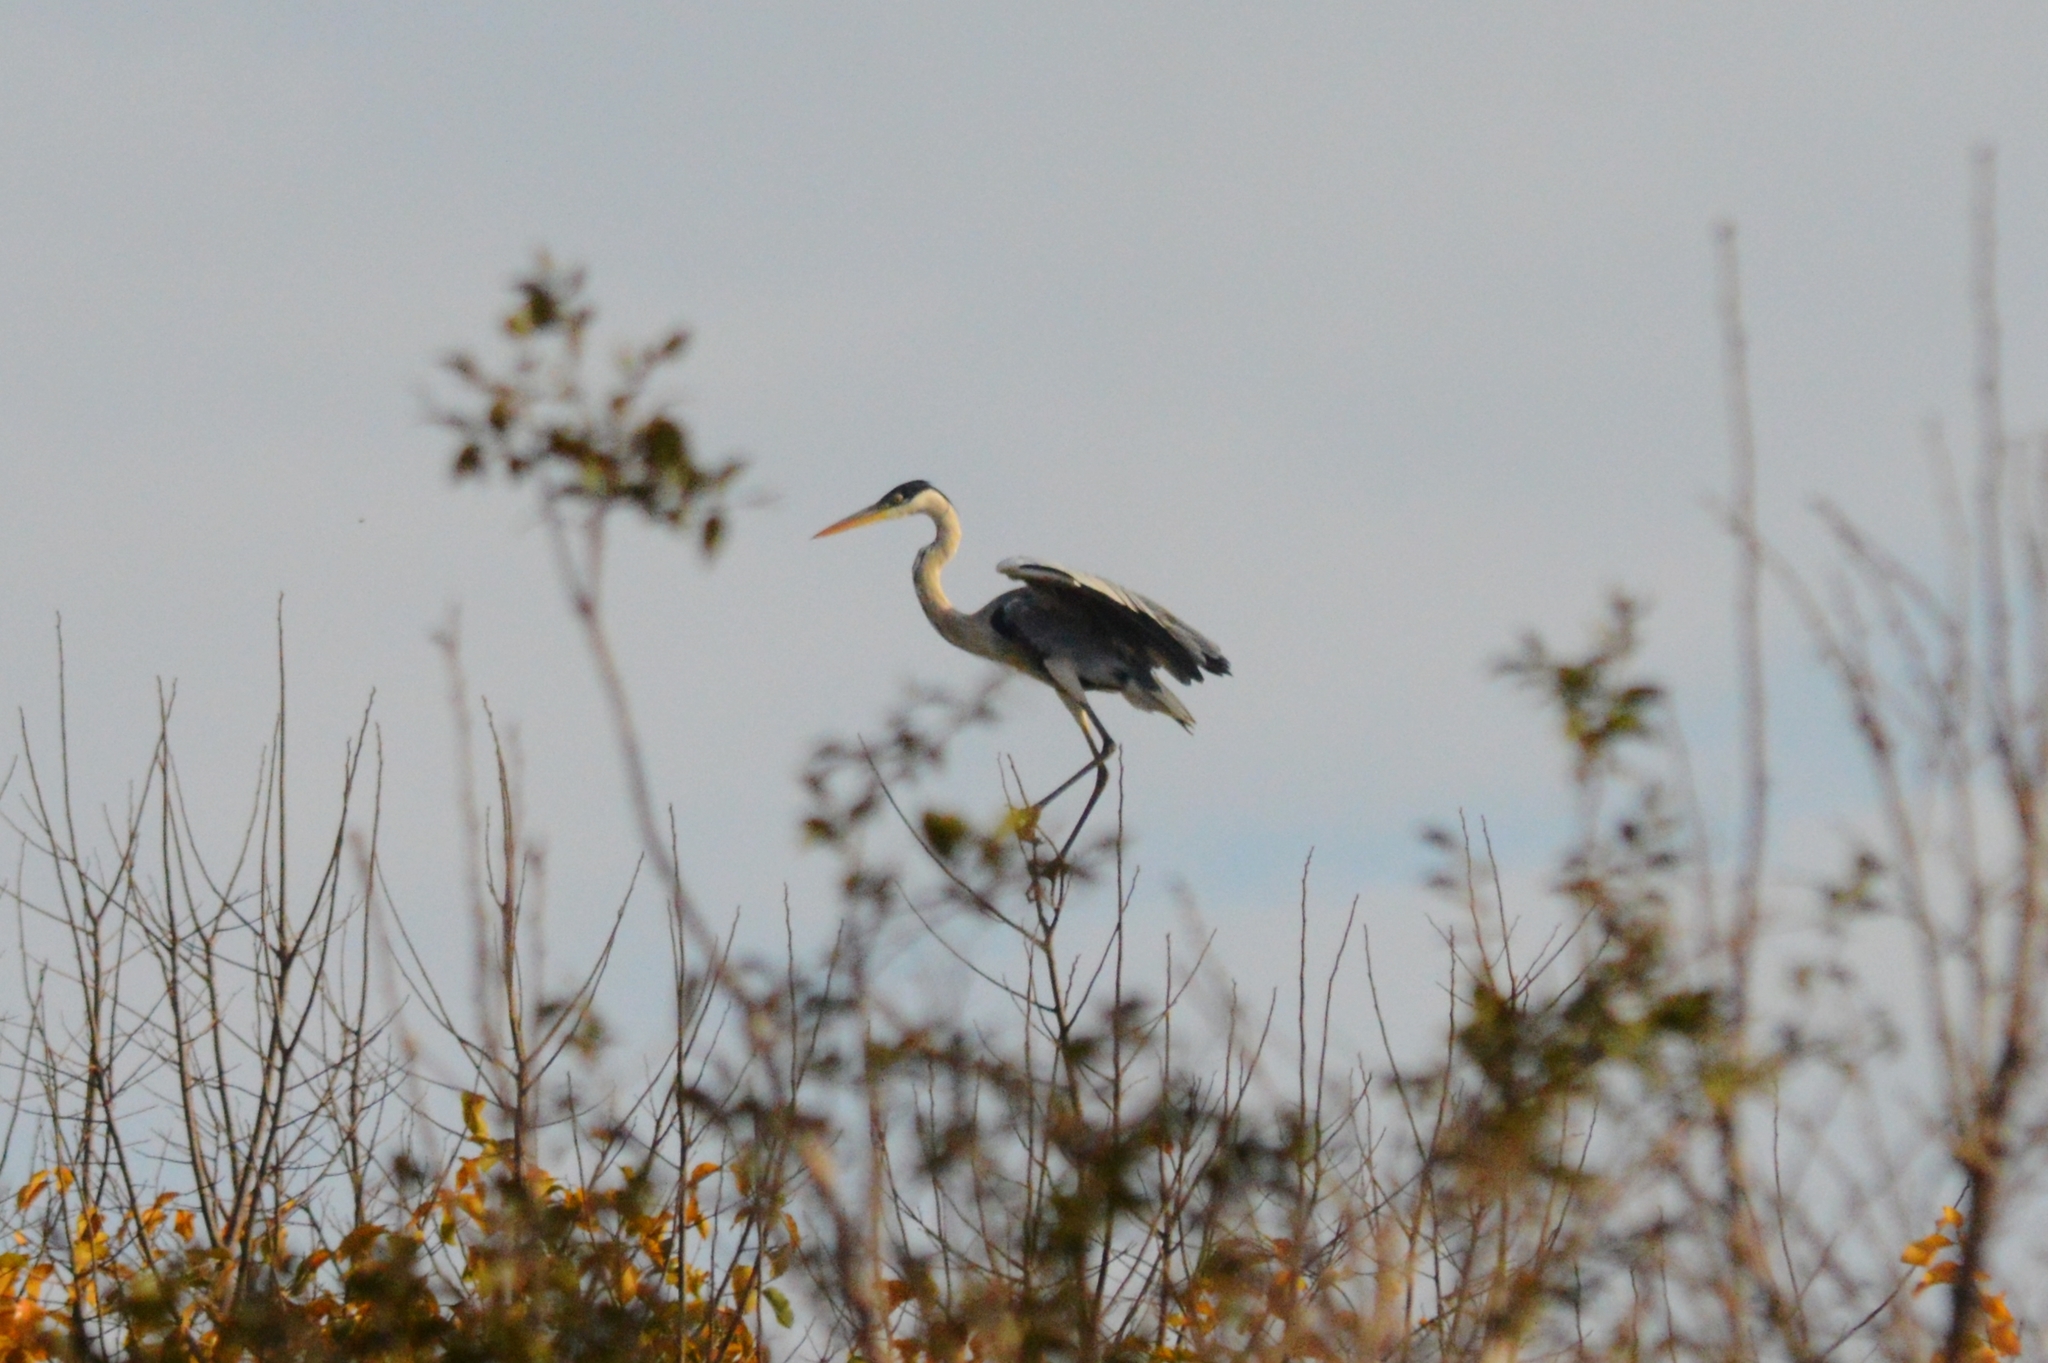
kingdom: Animalia
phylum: Chordata
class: Aves
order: Pelecaniformes
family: Ardeidae
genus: Ardea
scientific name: Ardea cocoi
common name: Cocoi heron
